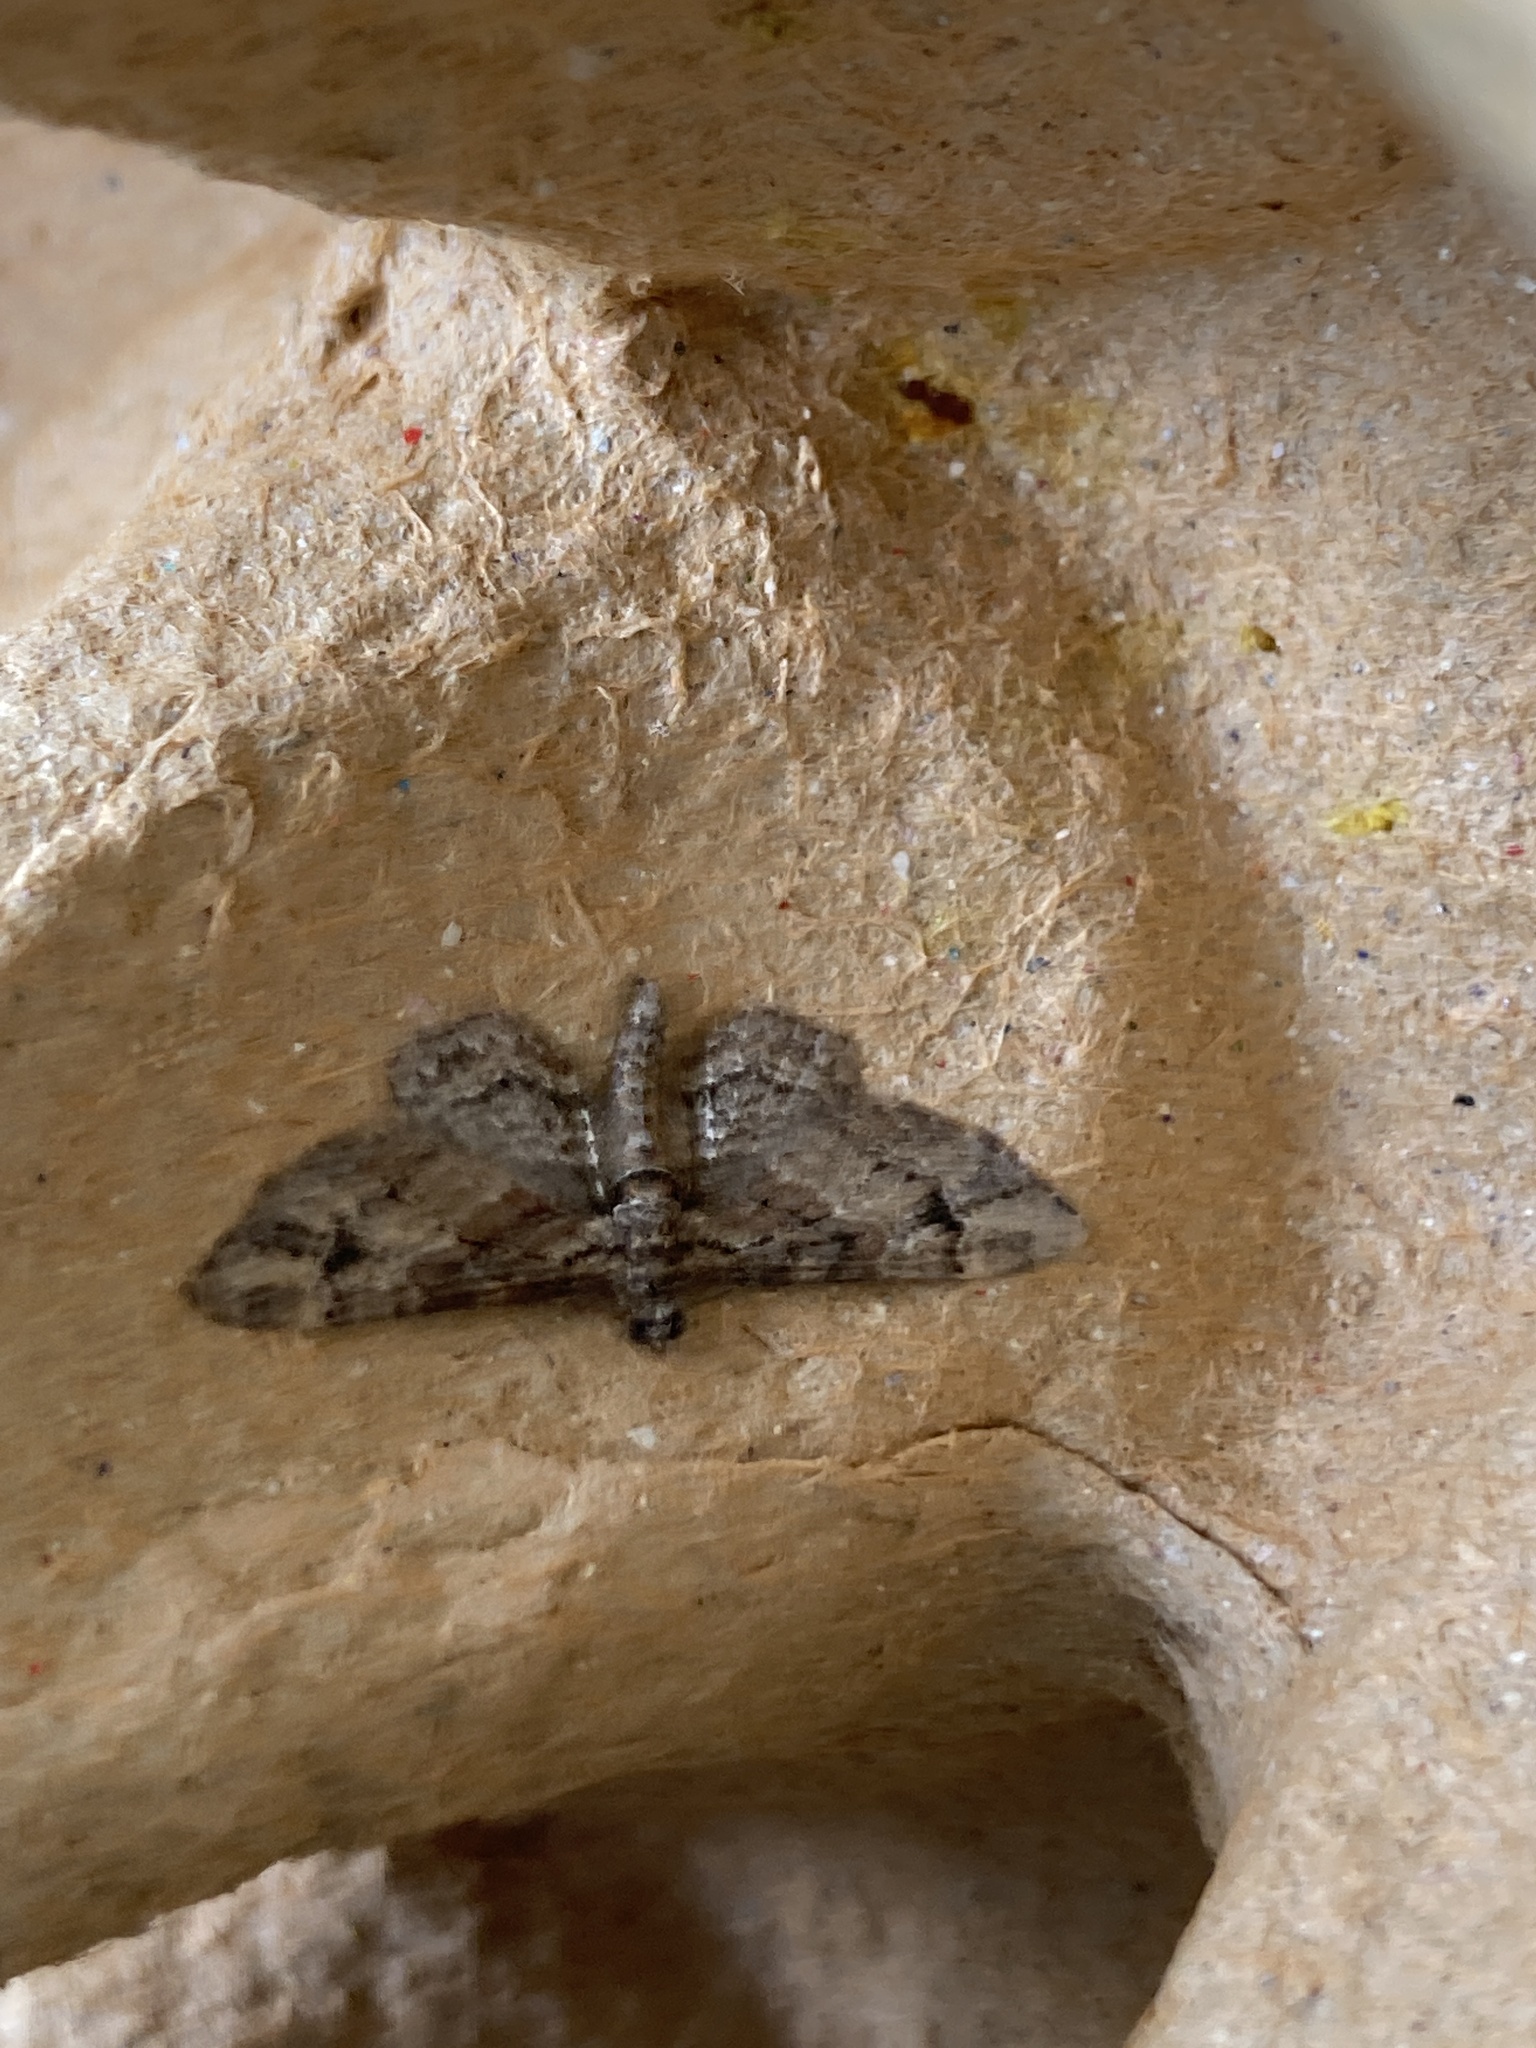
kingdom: Animalia
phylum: Arthropoda
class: Insecta
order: Lepidoptera
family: Geometridae
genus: Gymnoscelis
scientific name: Gymnoscelis rufifasciata
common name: Double-striped pug
